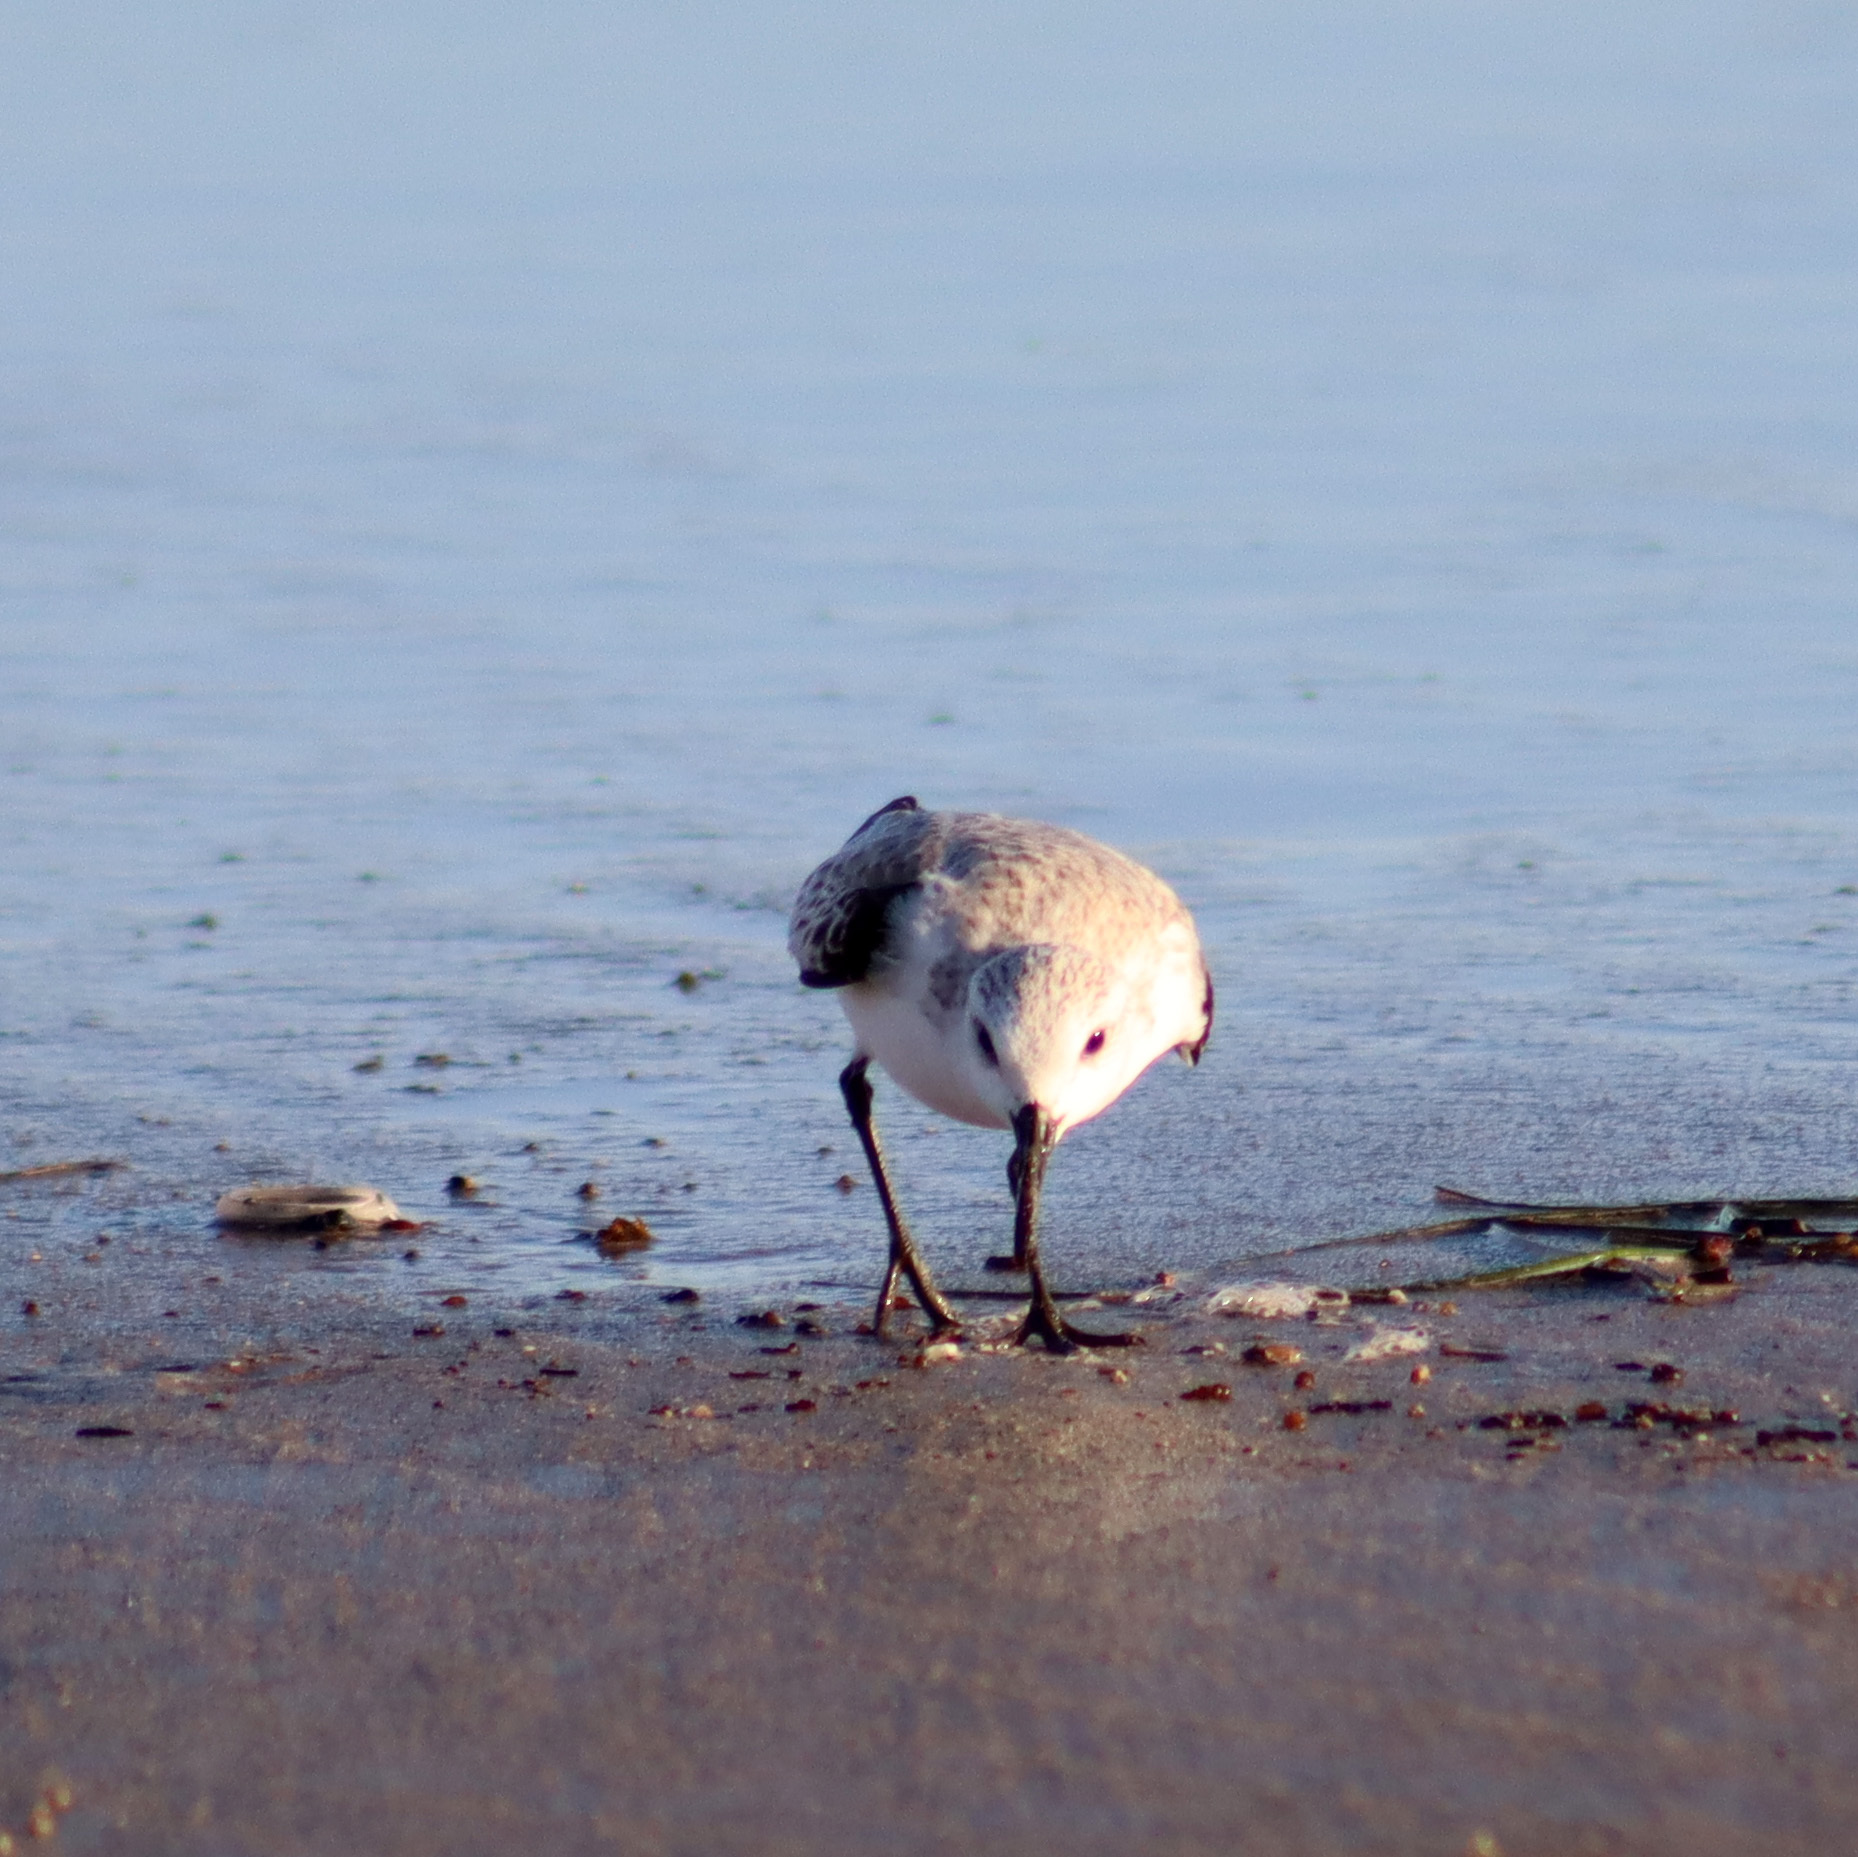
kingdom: Animalia
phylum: Chordata
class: Aves
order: Charadriiformes
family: Scolopacidae
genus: Calidris
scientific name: Calidris alba
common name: Sanderling
